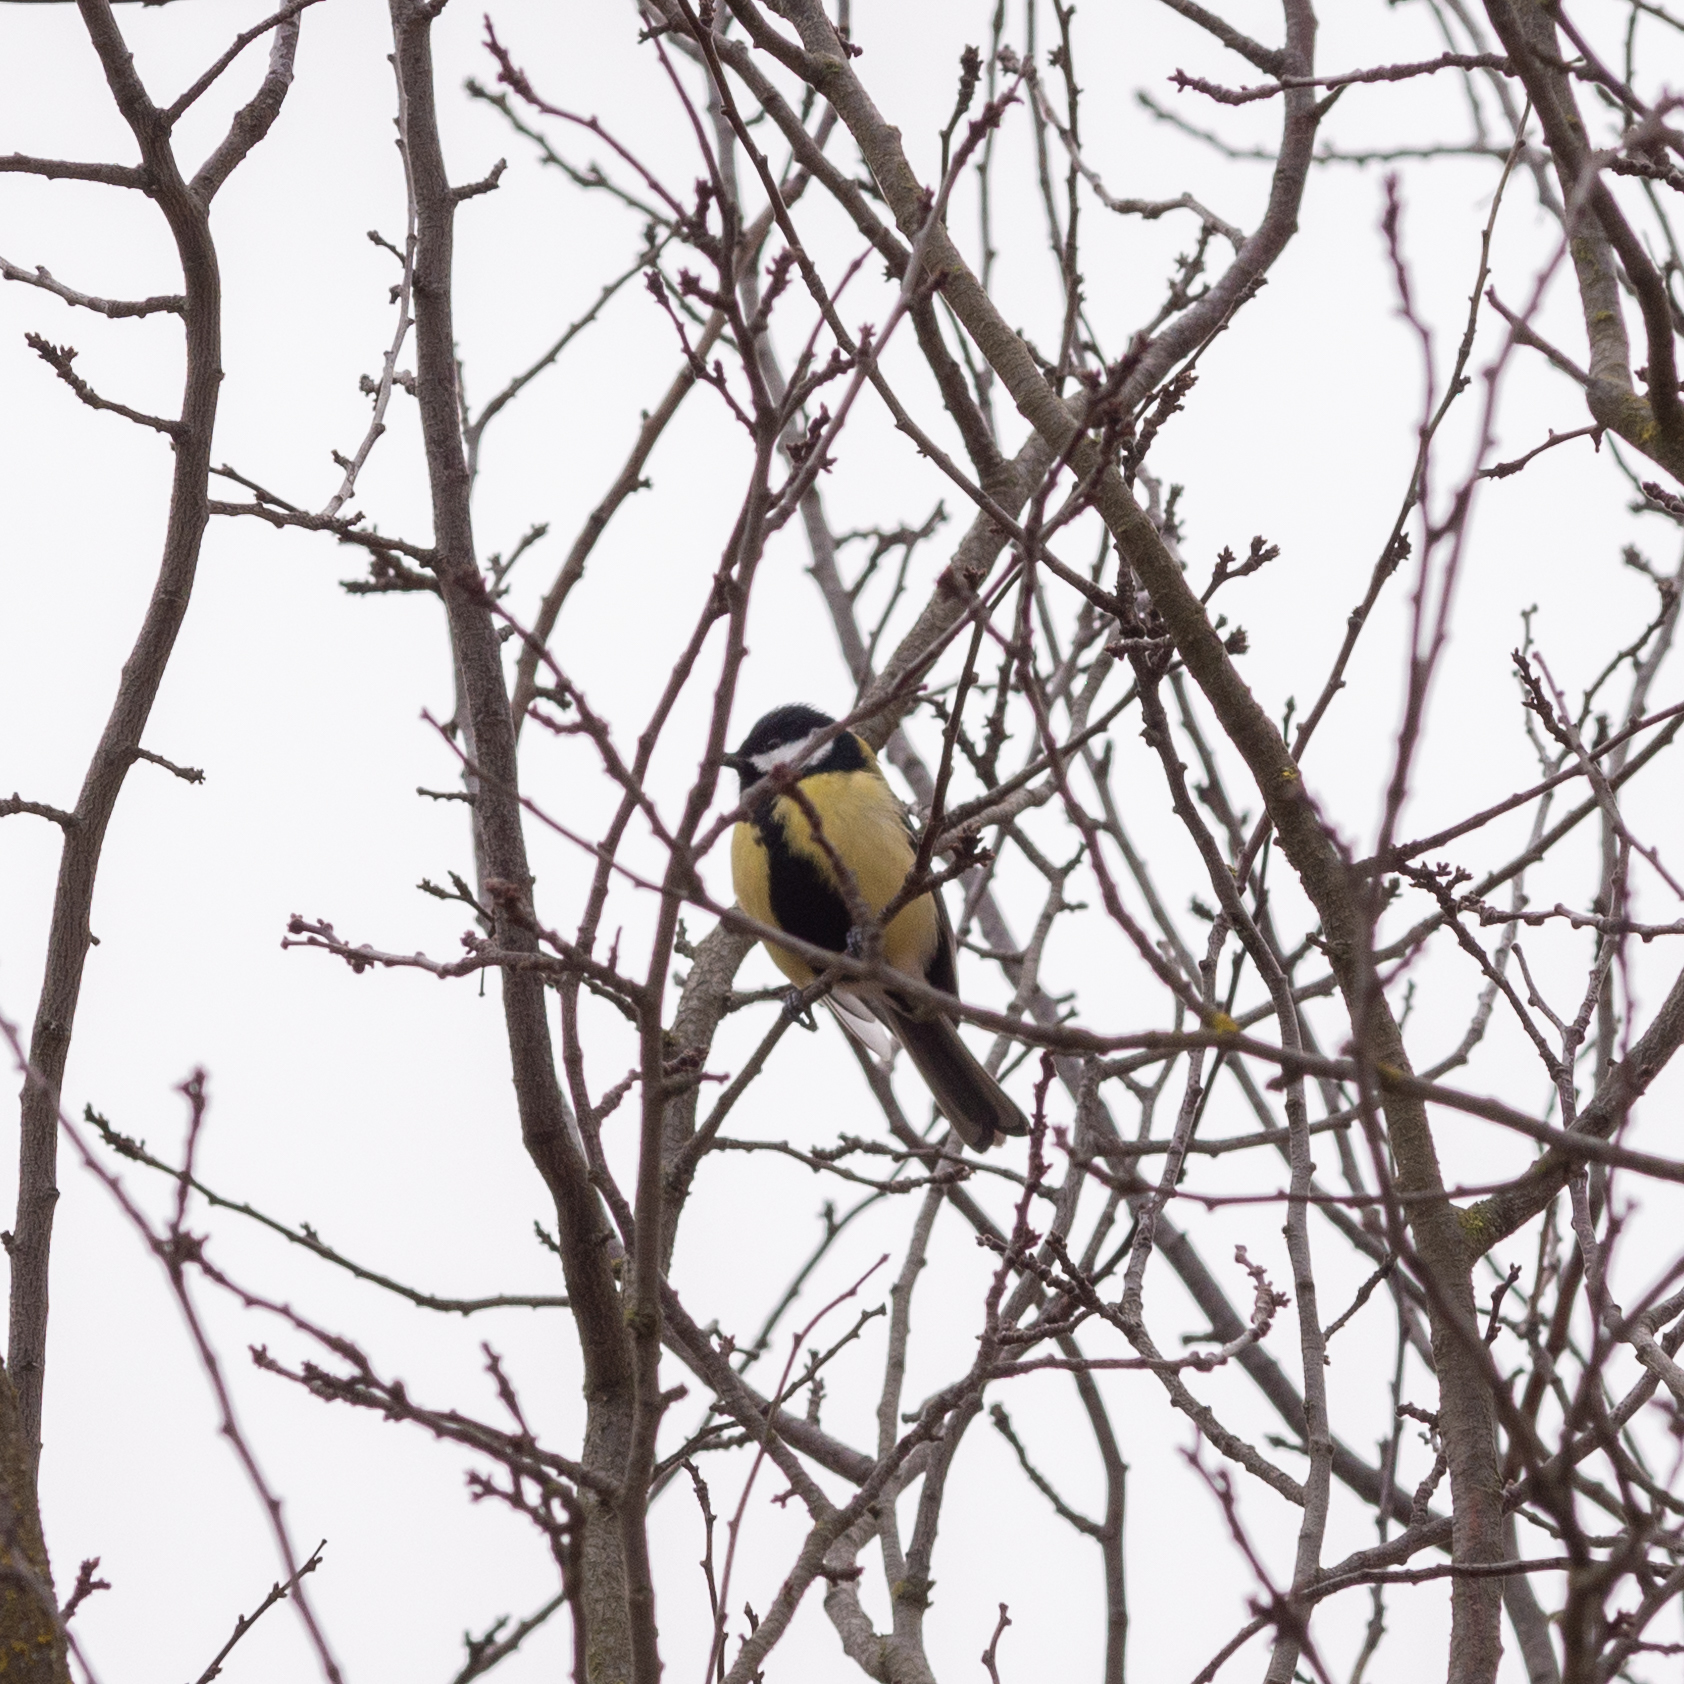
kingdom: Animalia
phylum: Chordata
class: Aves
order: Passeriformes
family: Paridae
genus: Parus
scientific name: Parus major
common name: Great tit
